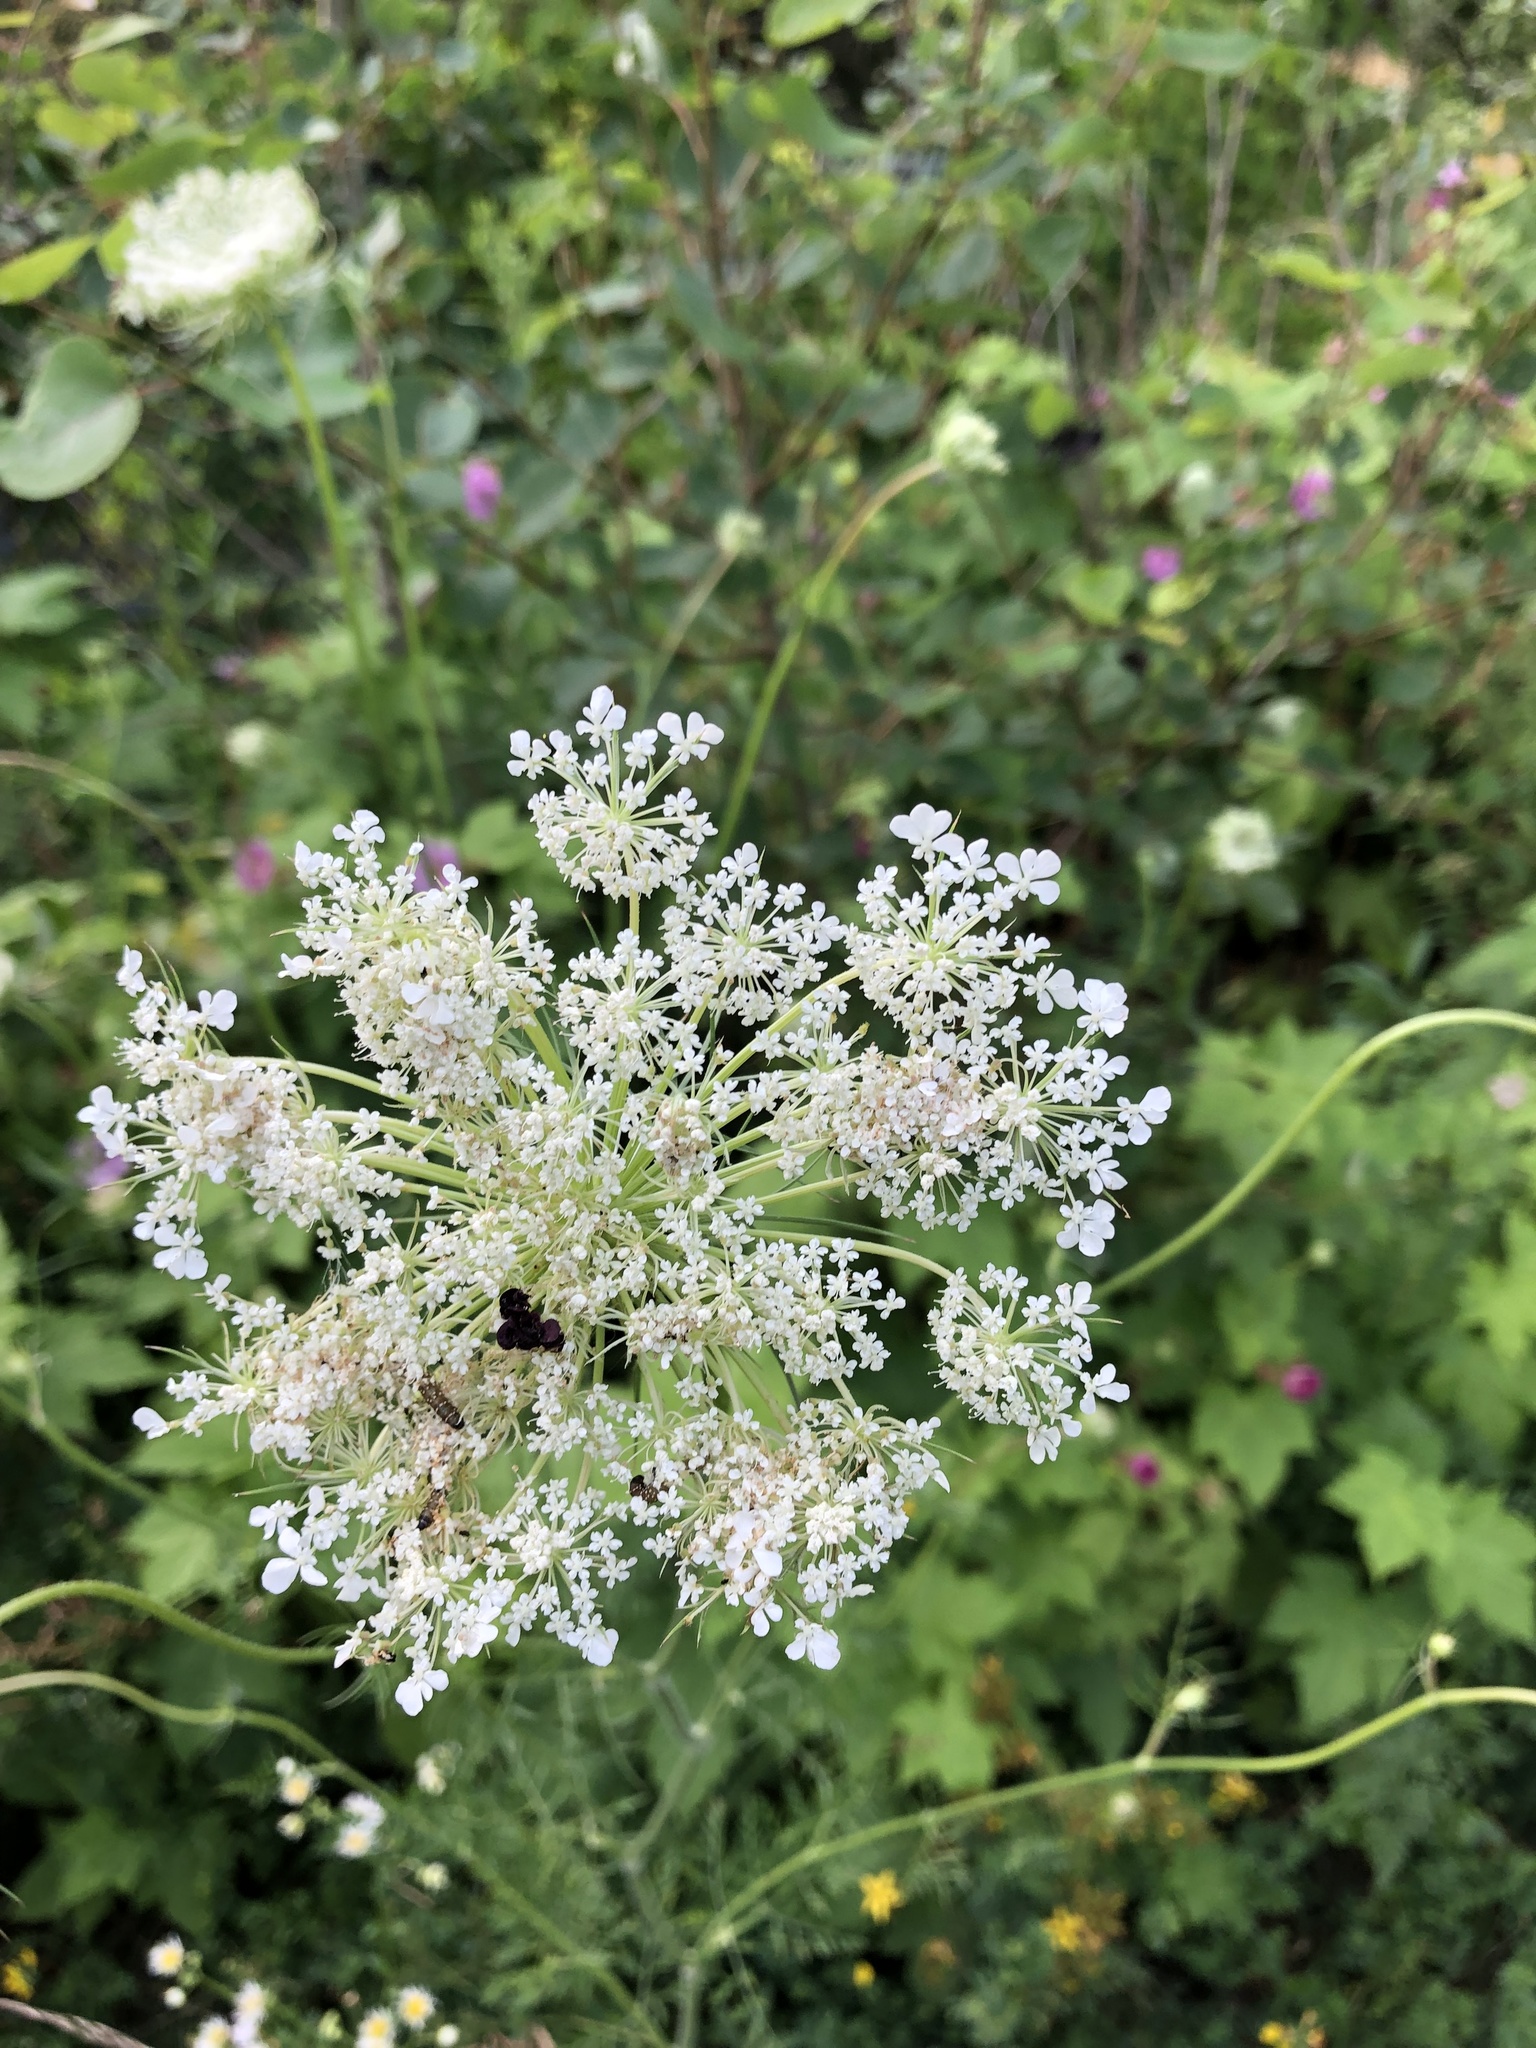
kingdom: Plantae
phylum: Tracheophyta
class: Magnoliopsida
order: Apiales
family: Apiaceae
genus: Daucus
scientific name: Daucus carota
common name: Wild carrot
